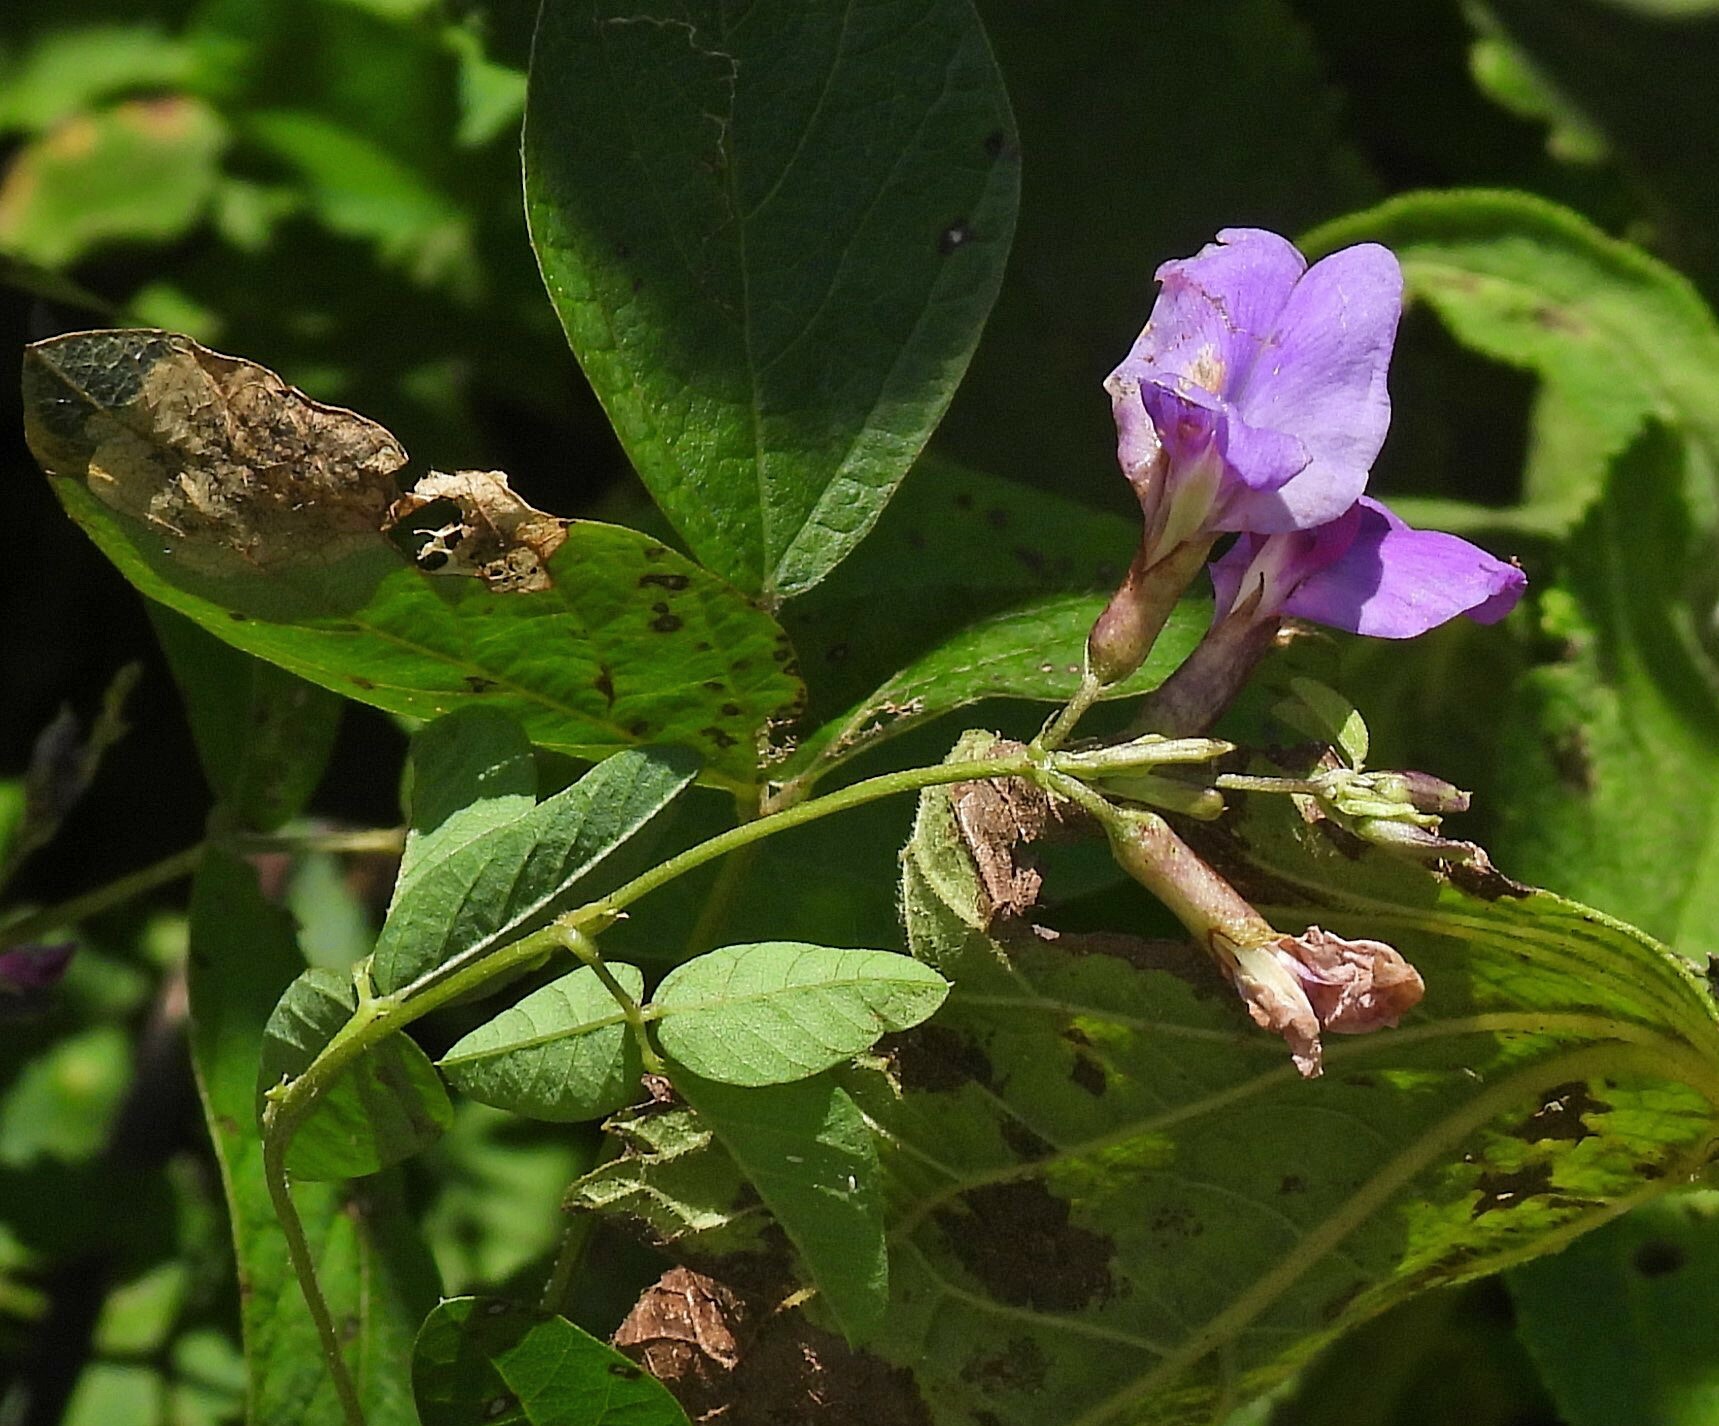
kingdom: Plantae
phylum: Tracheophyta
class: Magnoliopsida
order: Fabales
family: Fabaceae
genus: Cologania
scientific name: Cologania broussonetii
